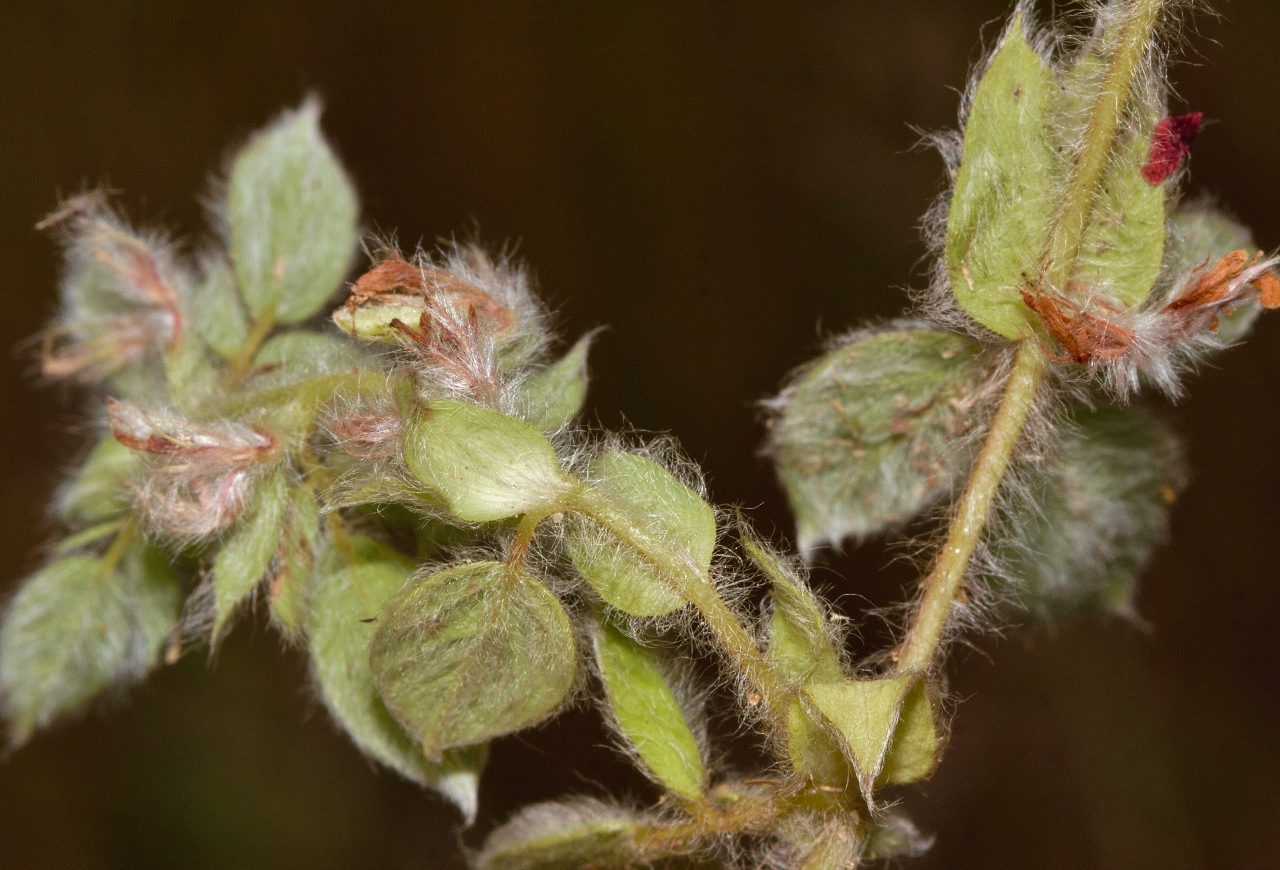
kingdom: Plantae
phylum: Tracheophyta
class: Magnoliopsida
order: Fabales
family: Fabaceae
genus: Indigofera
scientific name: Indigofera eylesiana
